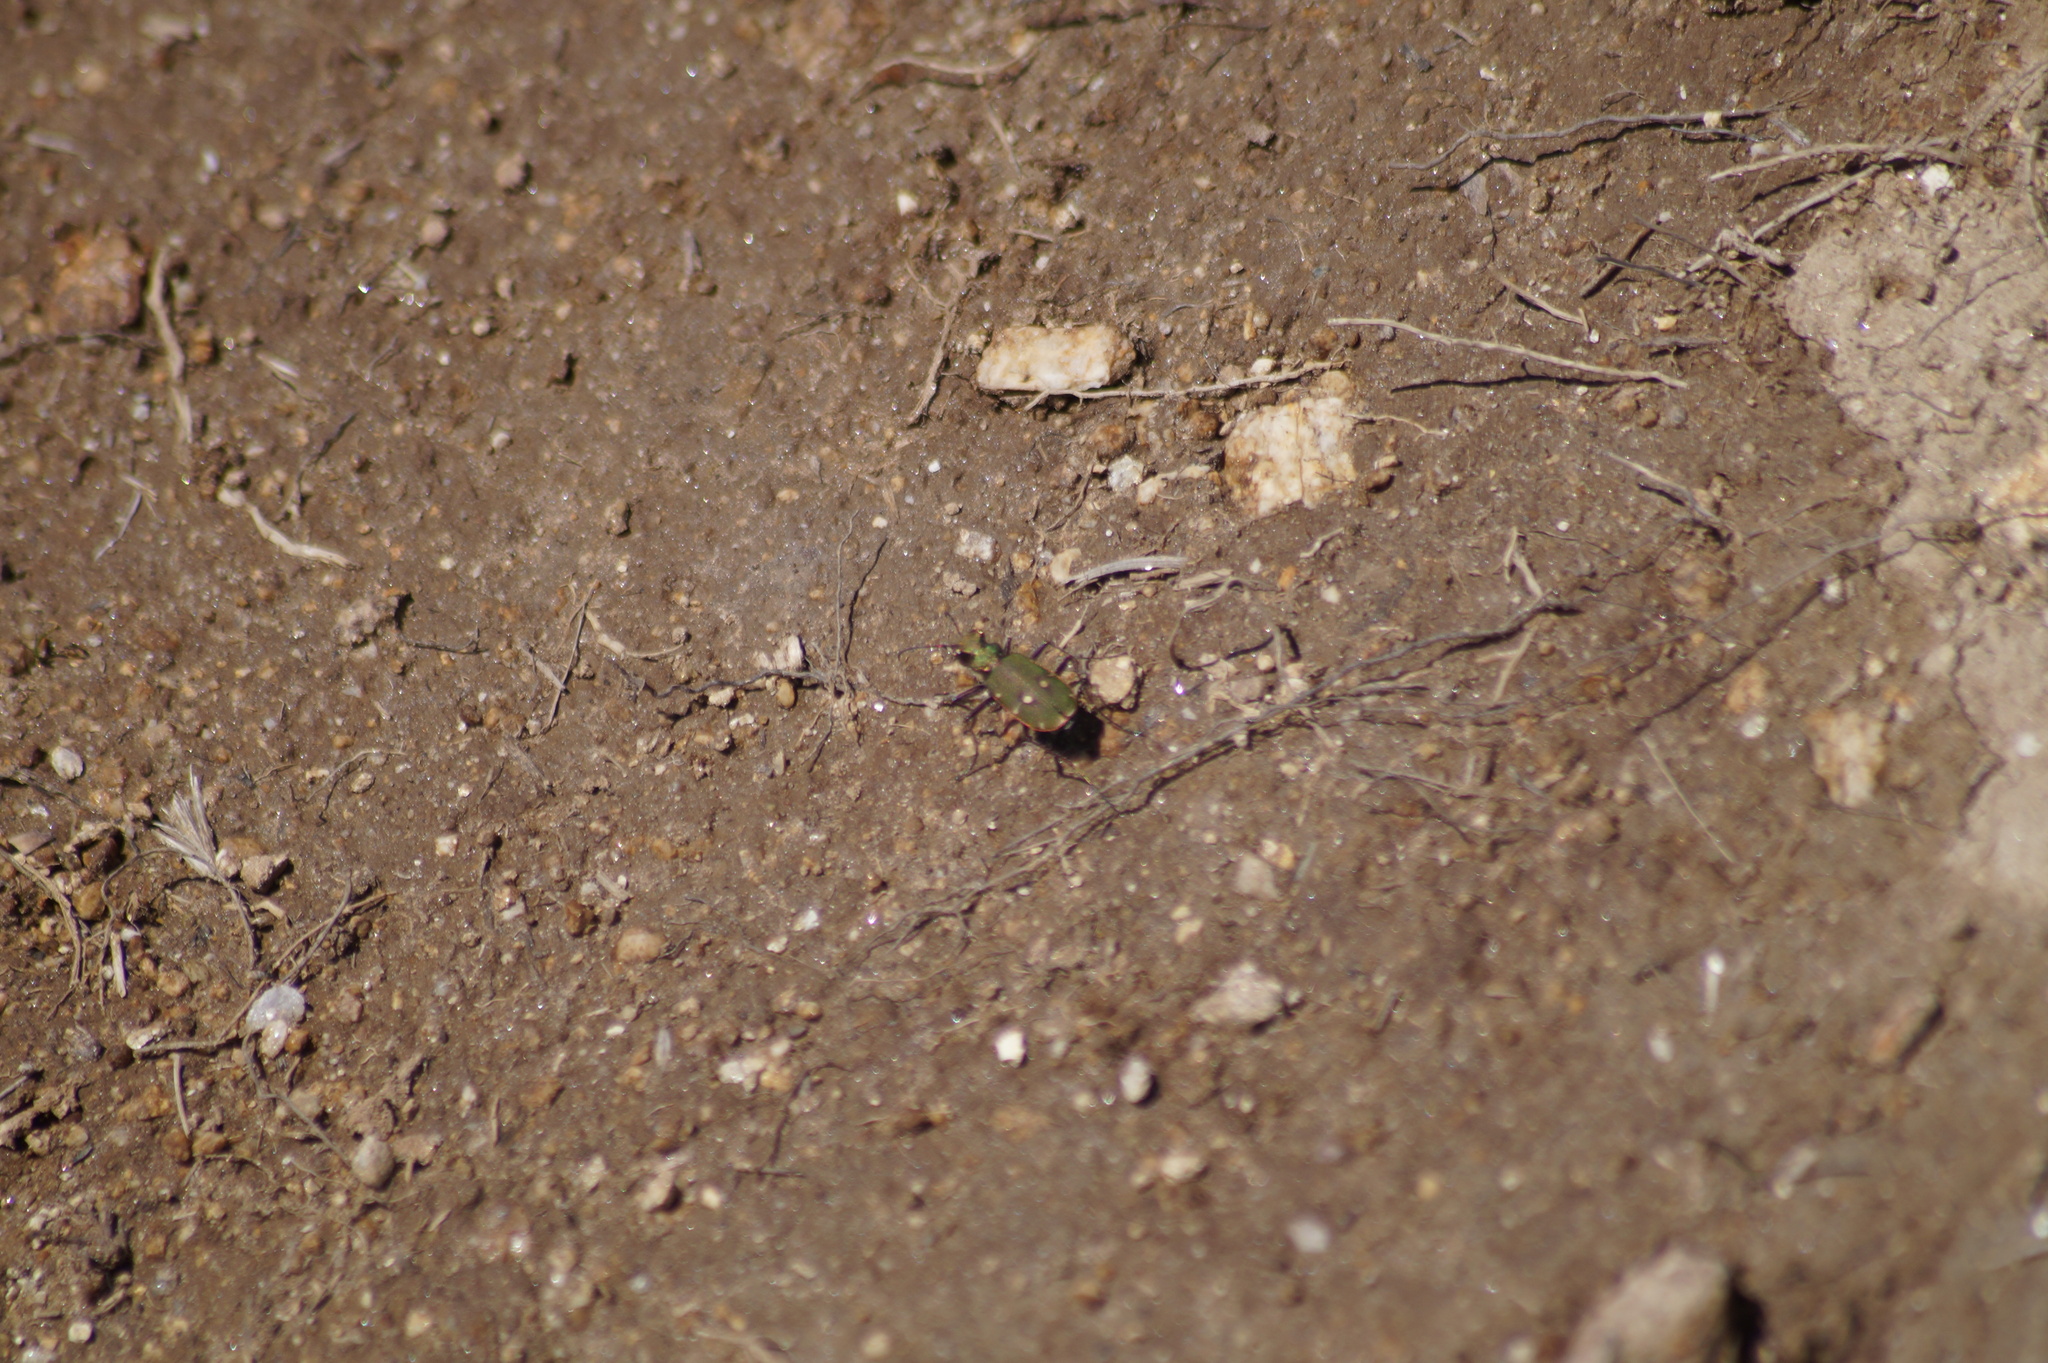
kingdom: Animalia
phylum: Arthropoda
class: Insecta
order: Coleoptera
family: Carabidae
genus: Cicindela
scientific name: Cicindela campestris
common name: Common tiger beetle
